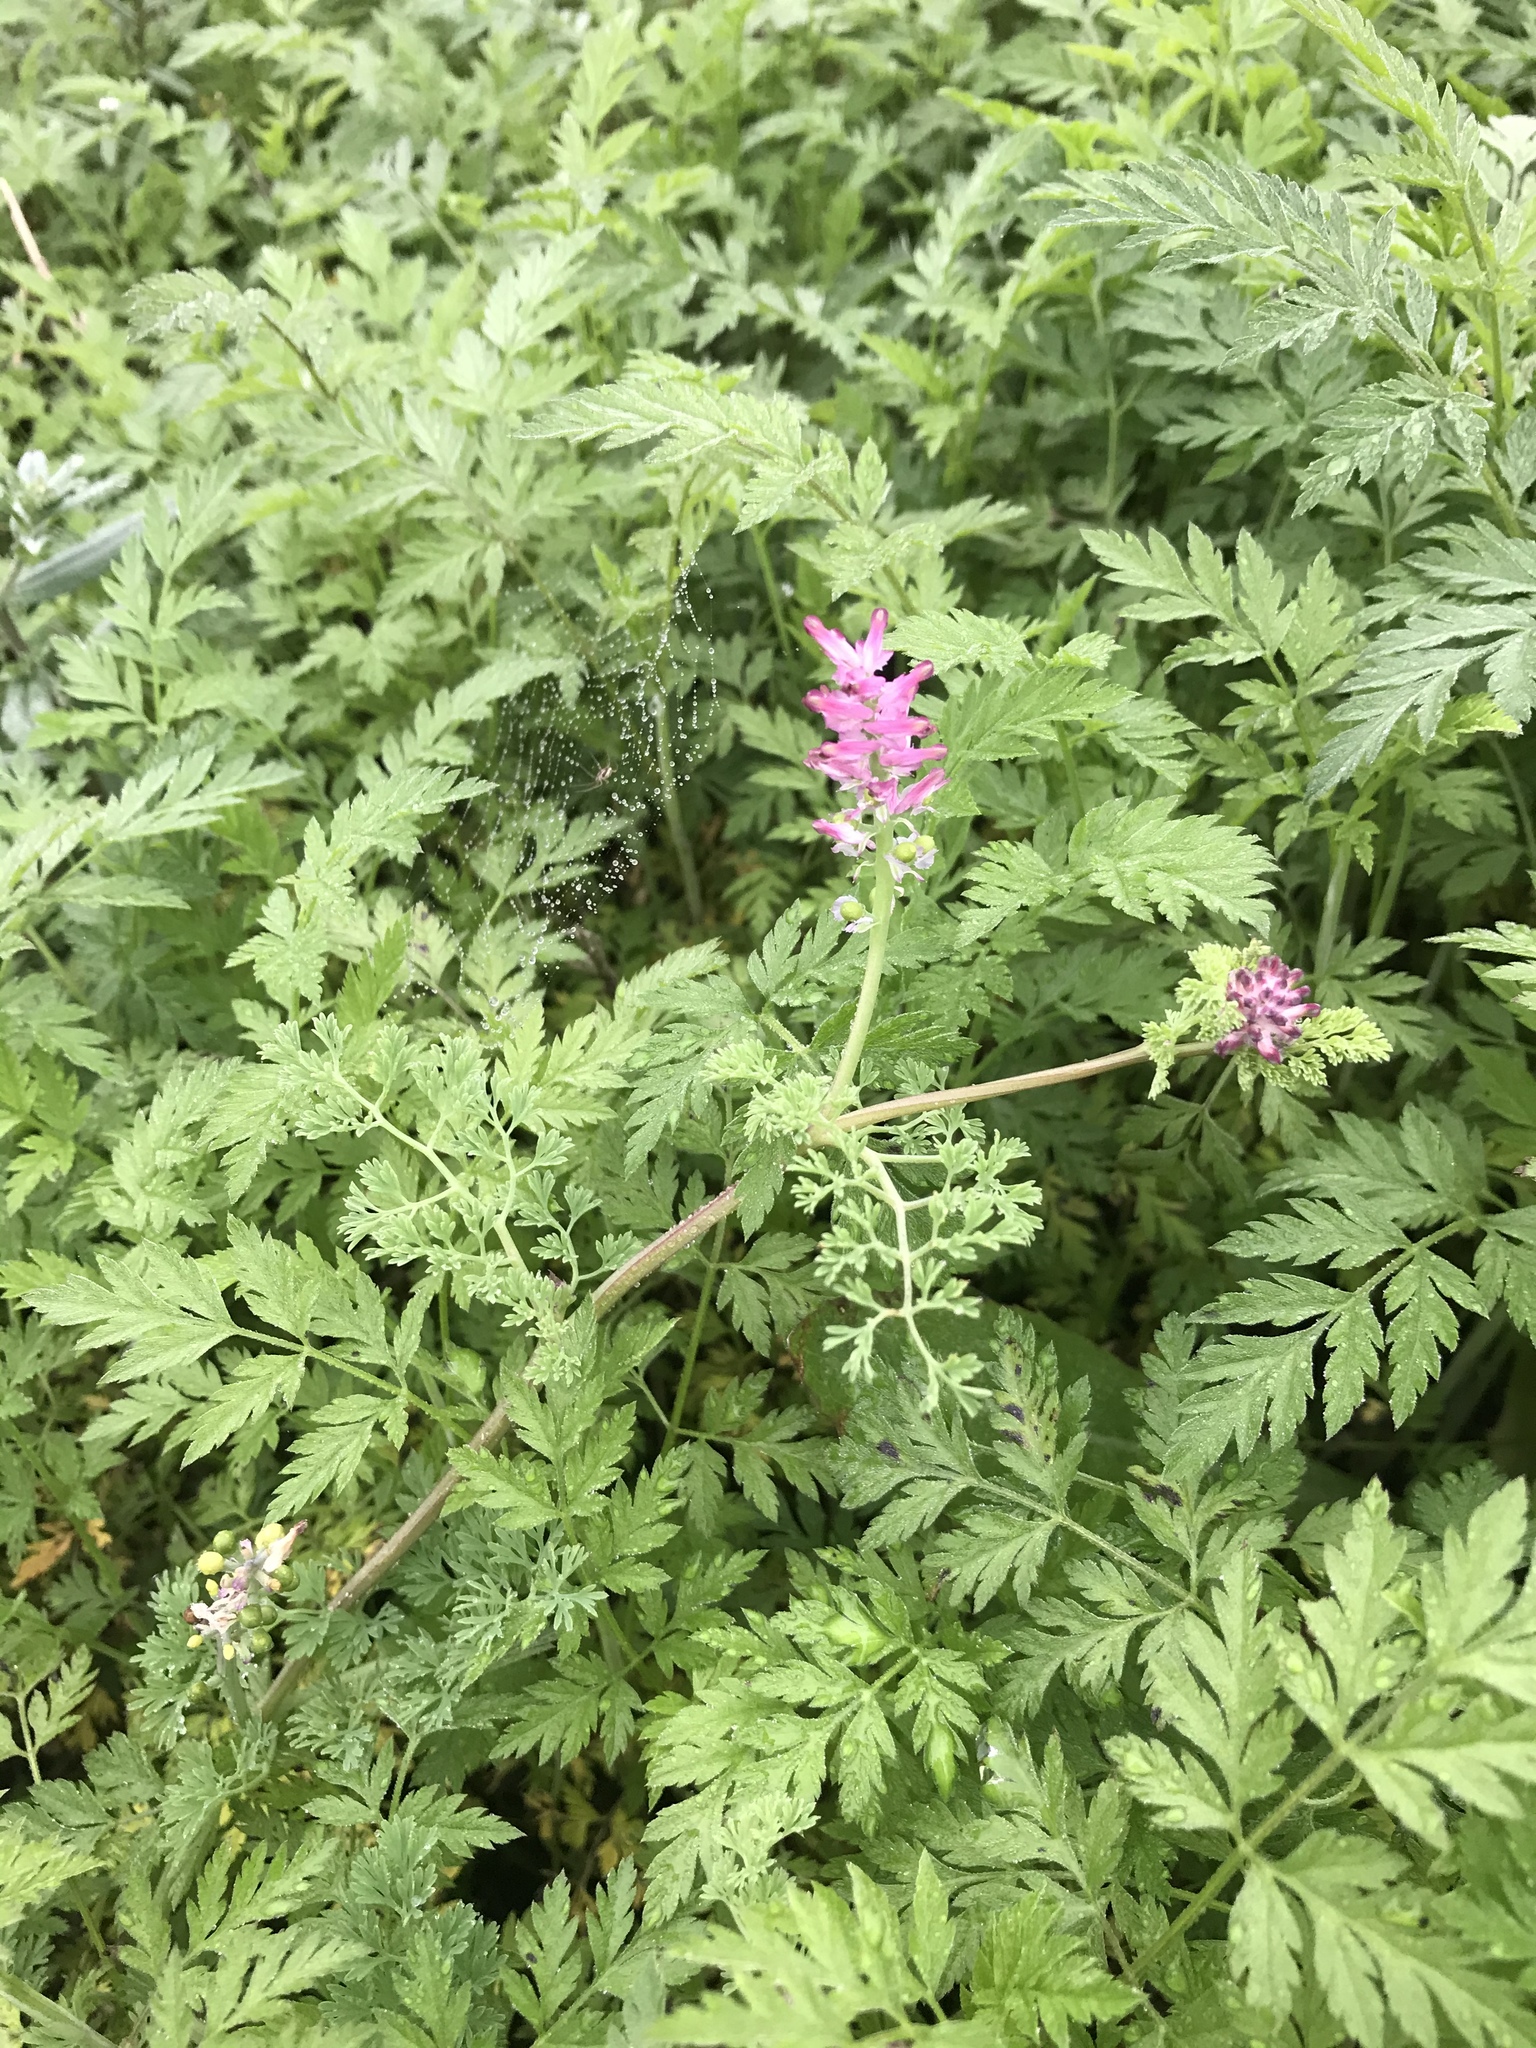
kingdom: Plantae
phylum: Tracheophyta
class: Magnoliopsida
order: Ranunculales
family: Papaveraceae
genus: Fumaria
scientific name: Fumaria densiflora
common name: Dense-flowered fumitory
